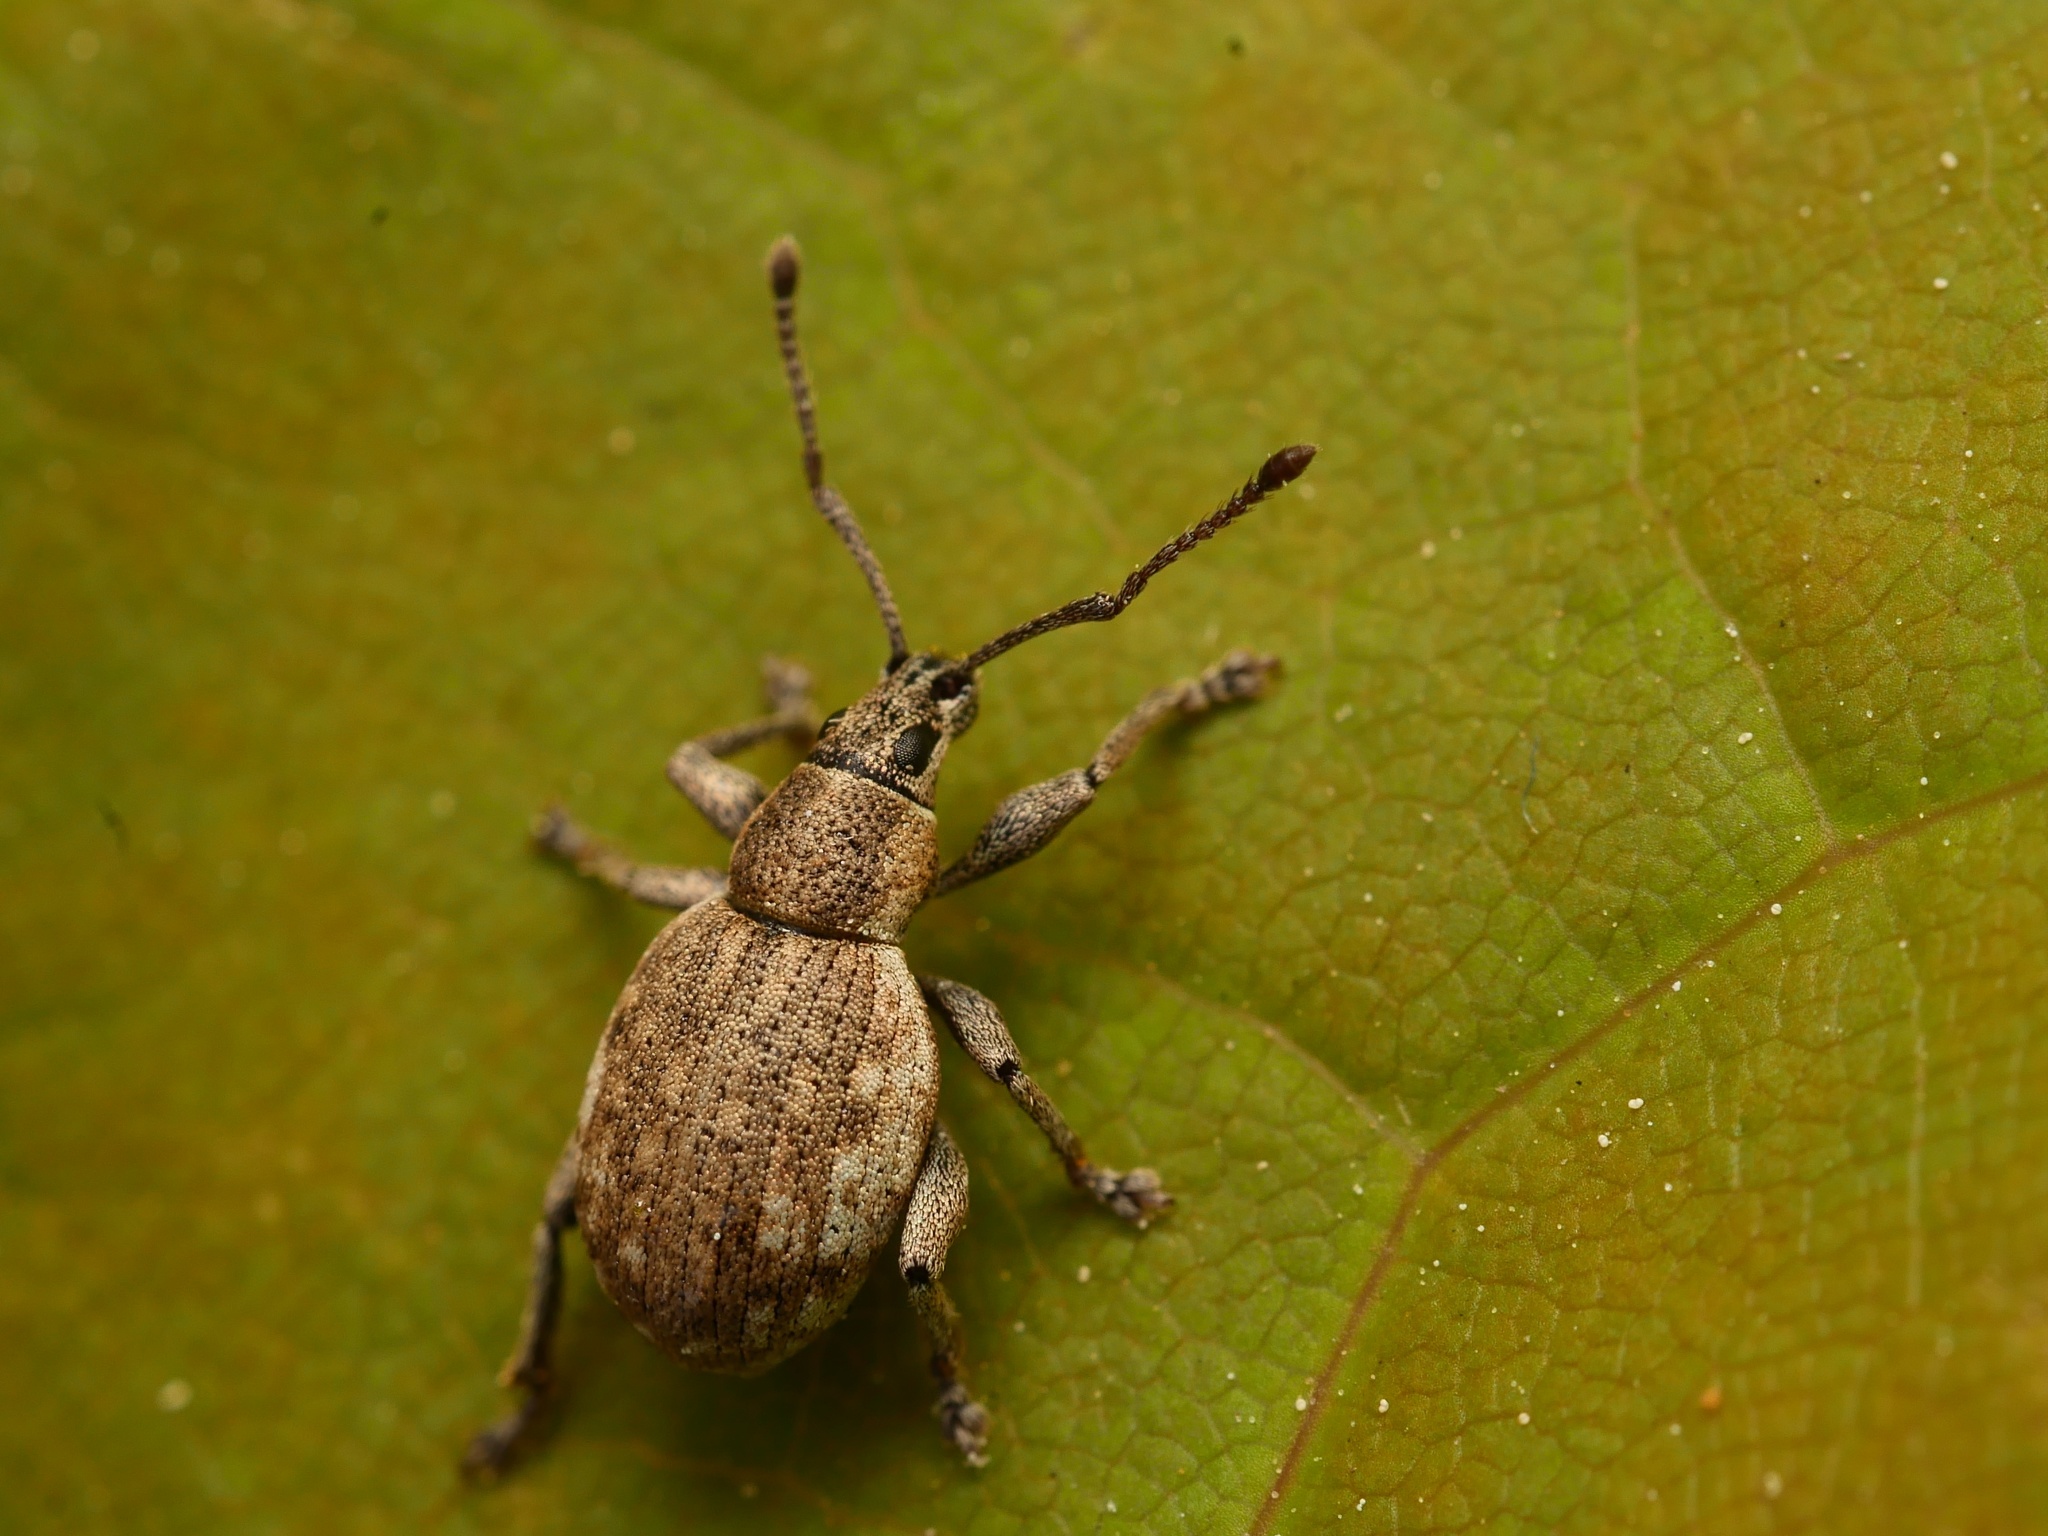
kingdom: Animalia
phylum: Arthropoda
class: Insecta
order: Coleoptera
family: Curculionidae
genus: Peritelus
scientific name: Peritelus sphaeroides
